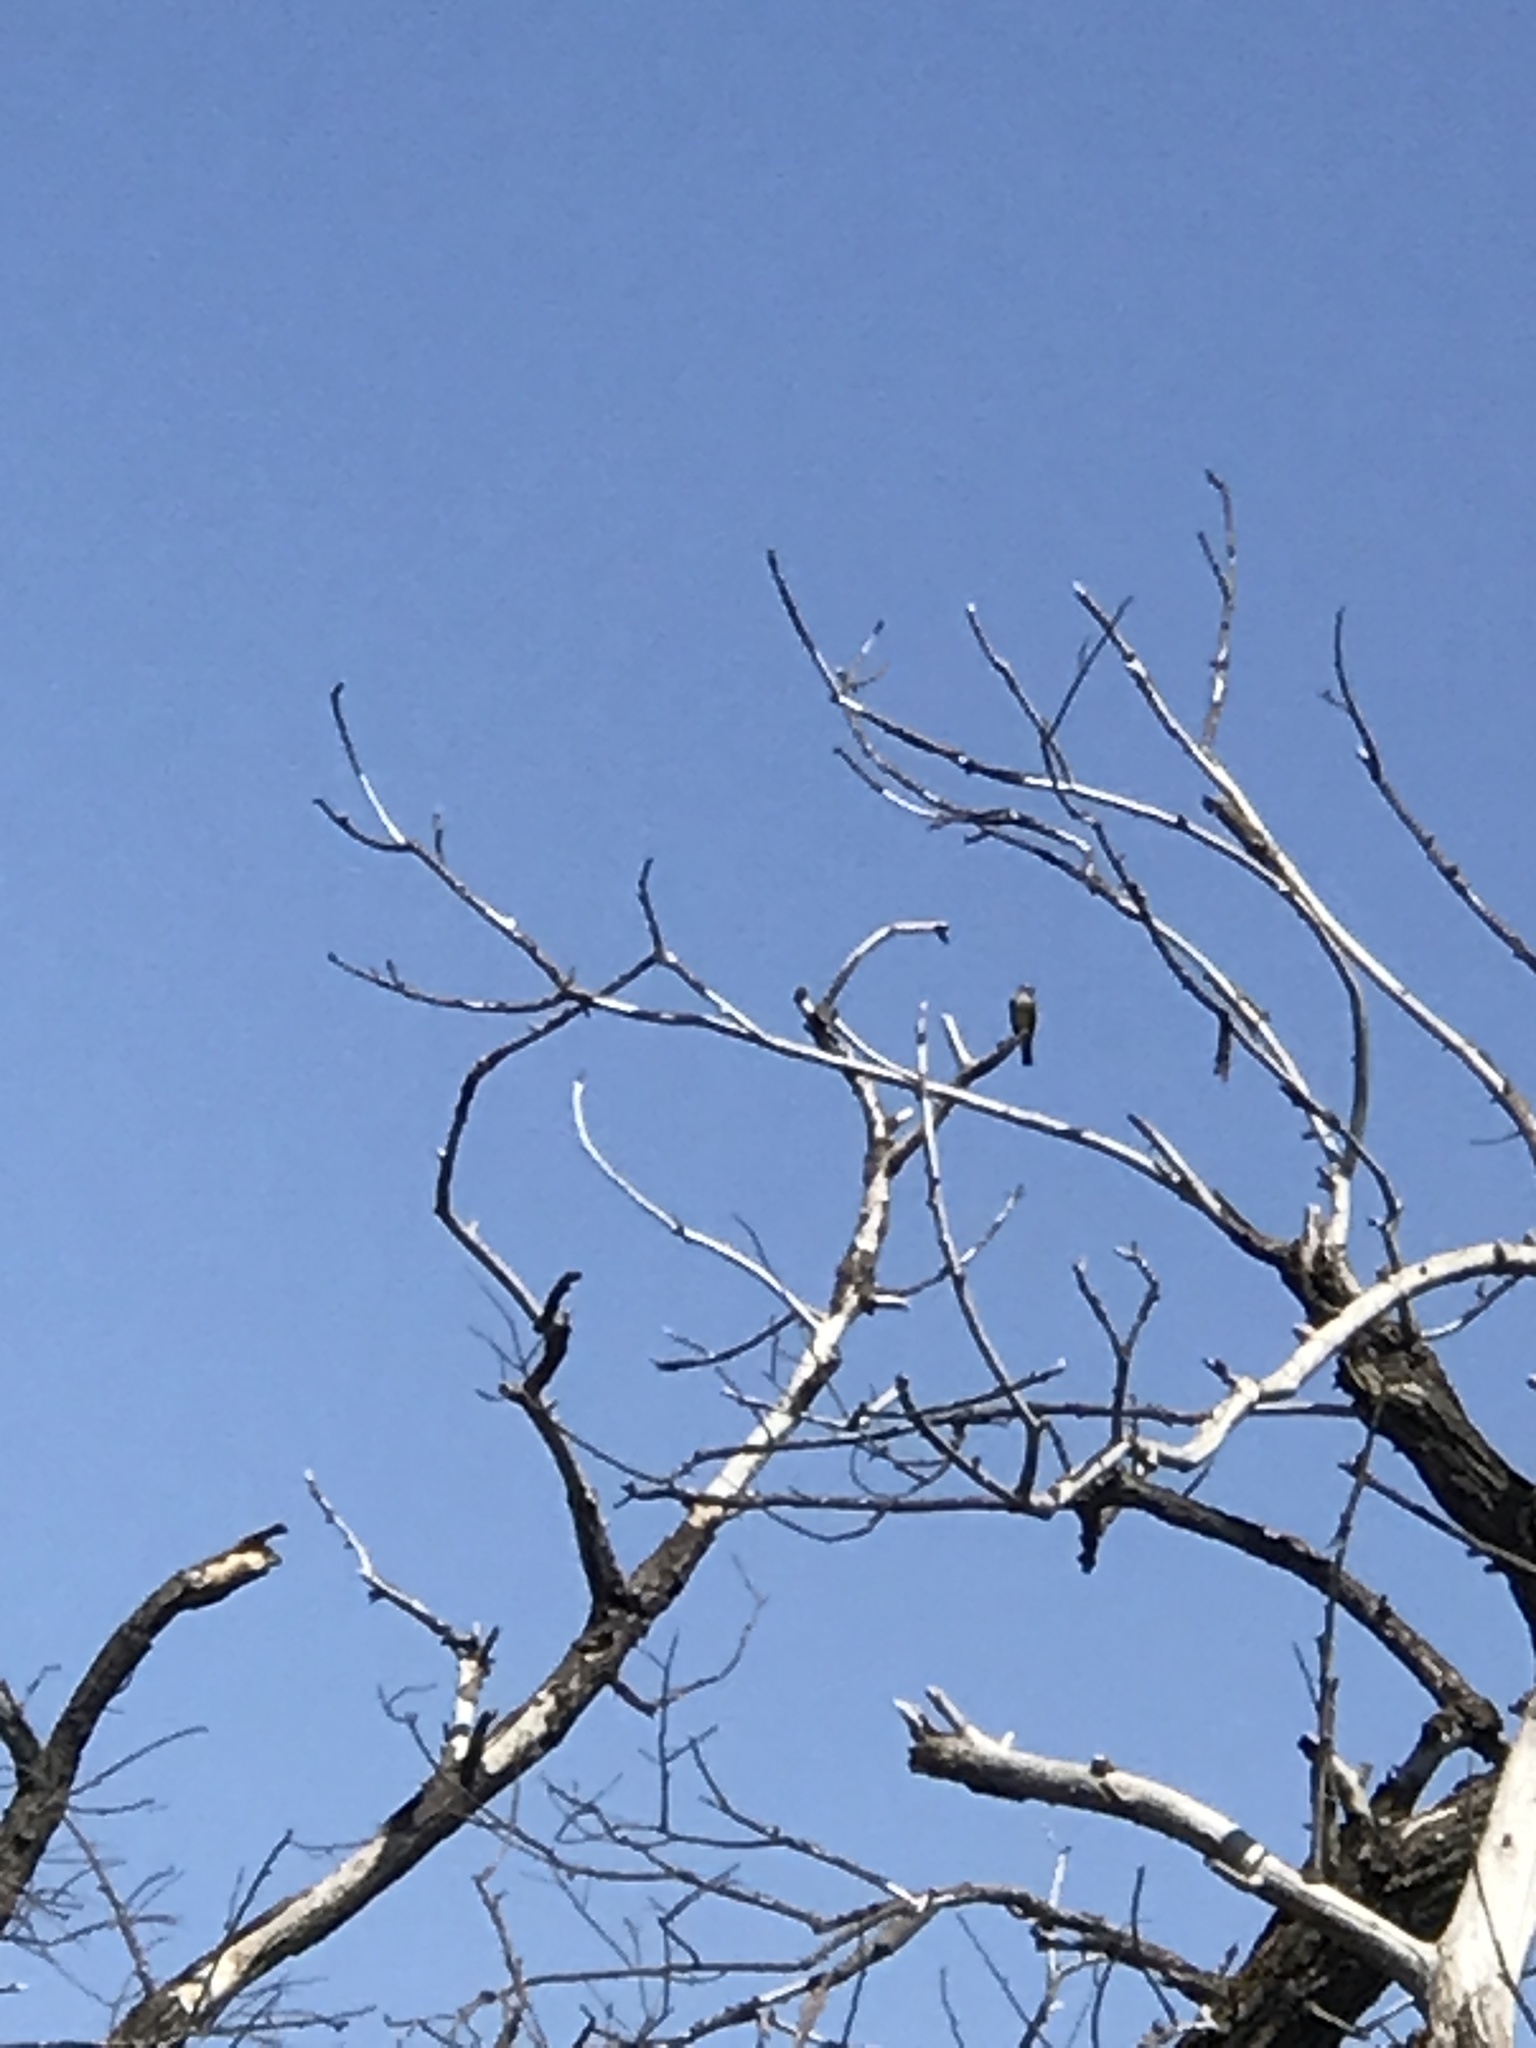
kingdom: Animalia
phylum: Chordata
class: Aves
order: Passeriformes
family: Tyrannidae
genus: Tyrannus
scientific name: Tyrannus
